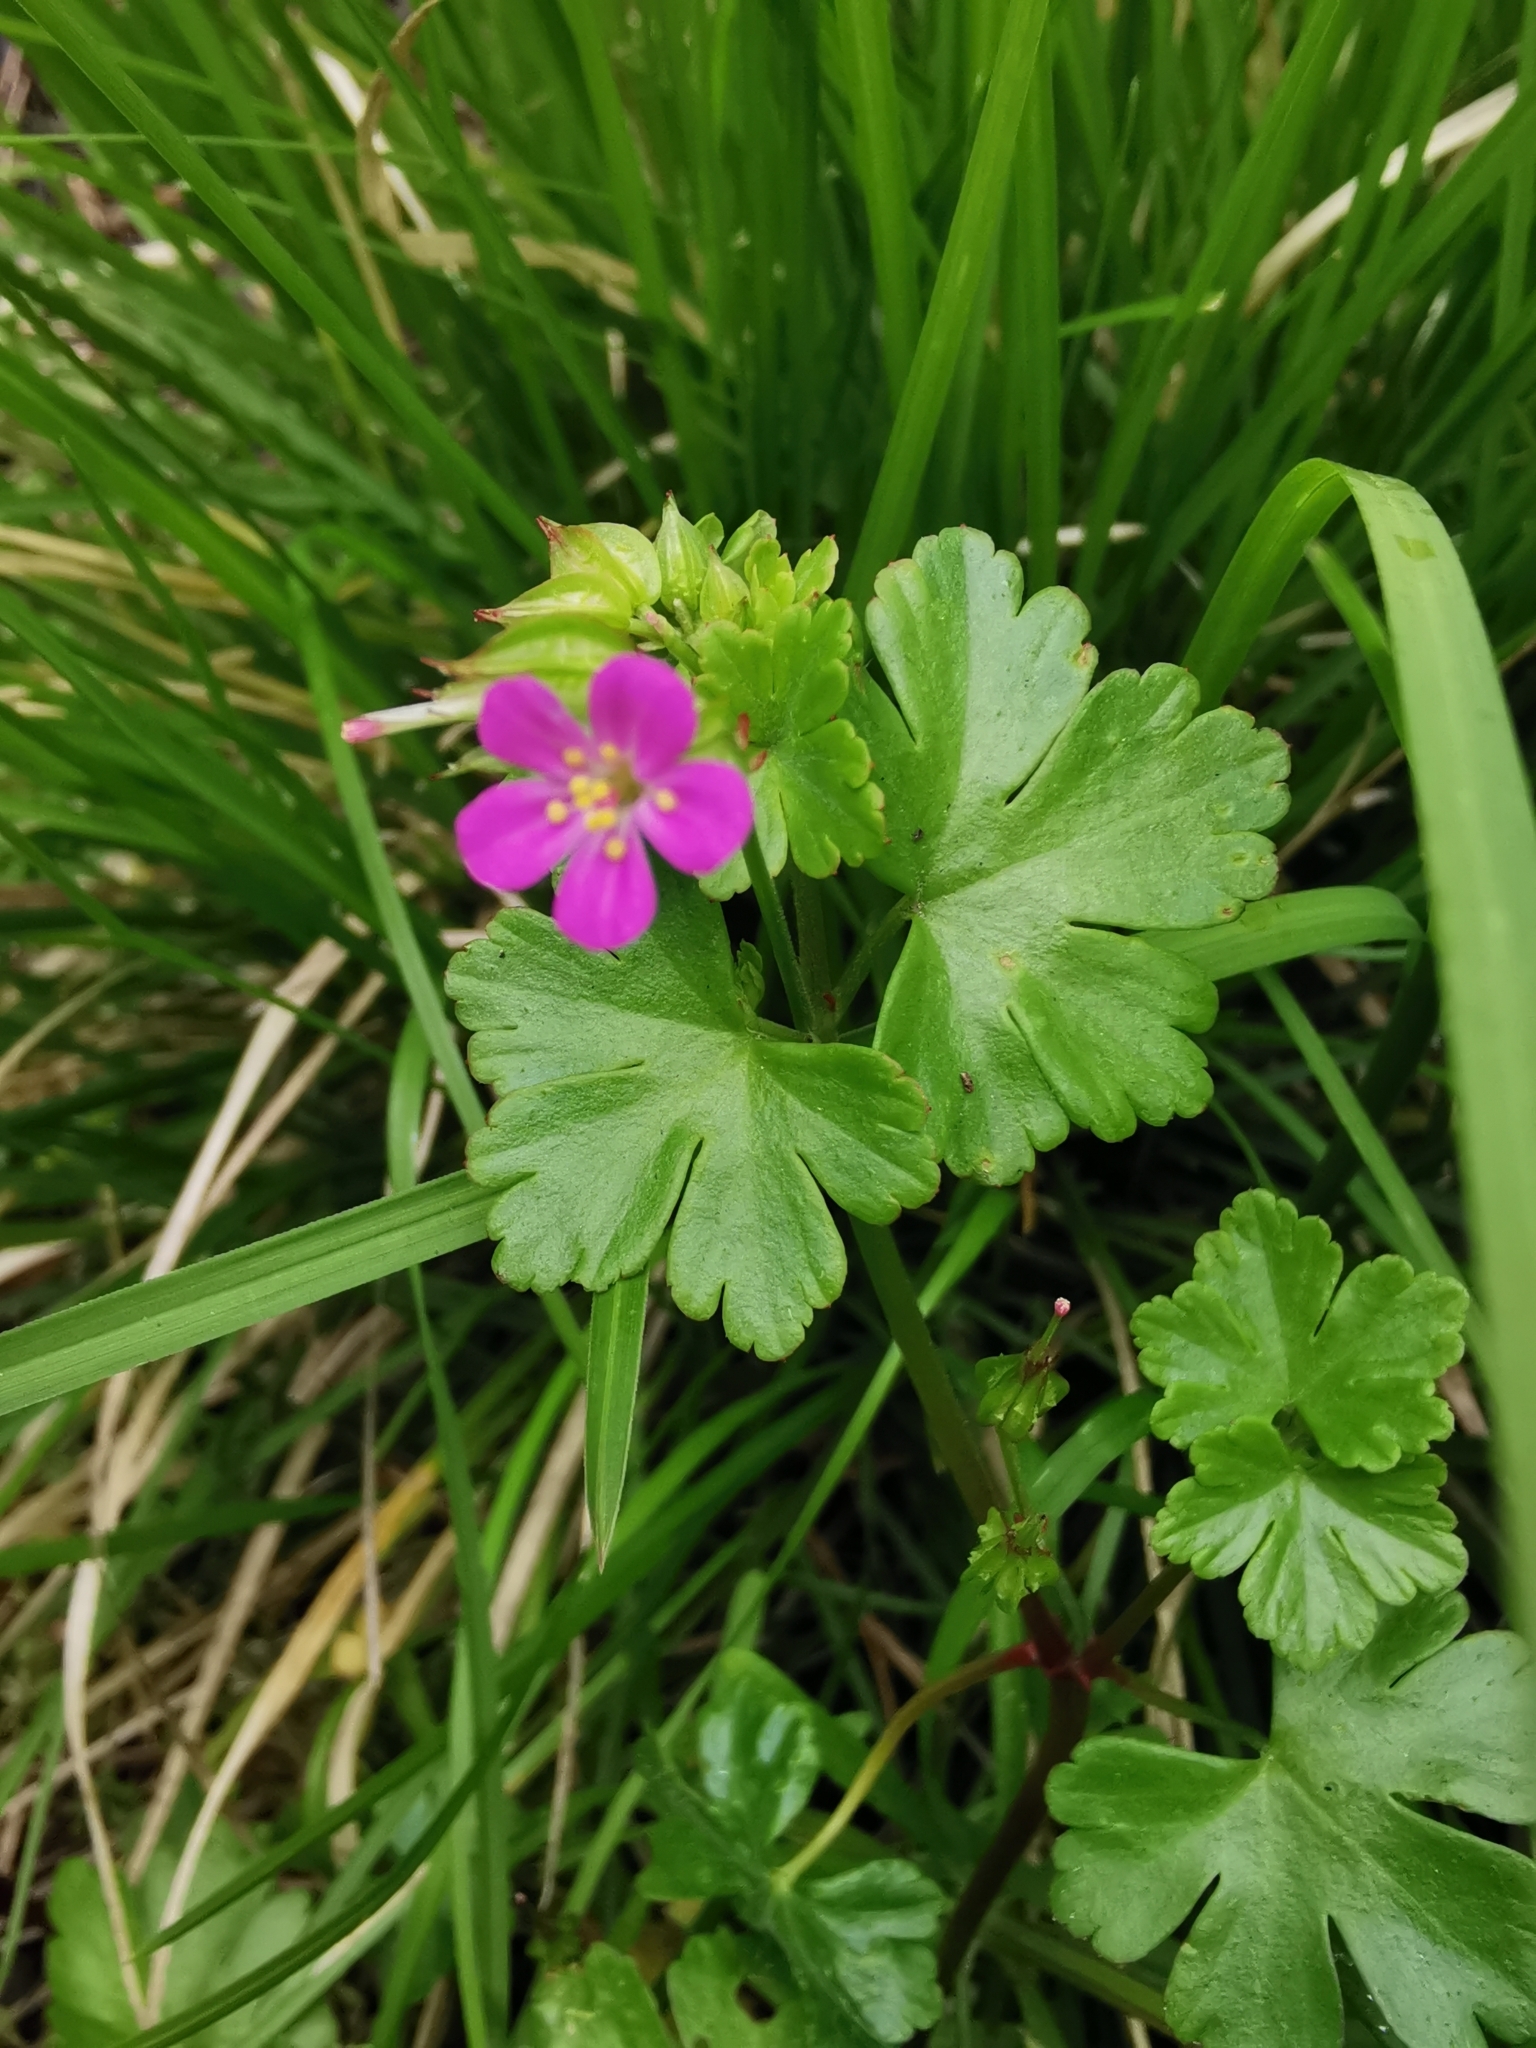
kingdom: Plantae
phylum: Tracheophyta
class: Magnoliopsida
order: Geraniales
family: Geraniaceae
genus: Geranium
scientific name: Geranium lucidum
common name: Shining crane's-bill
